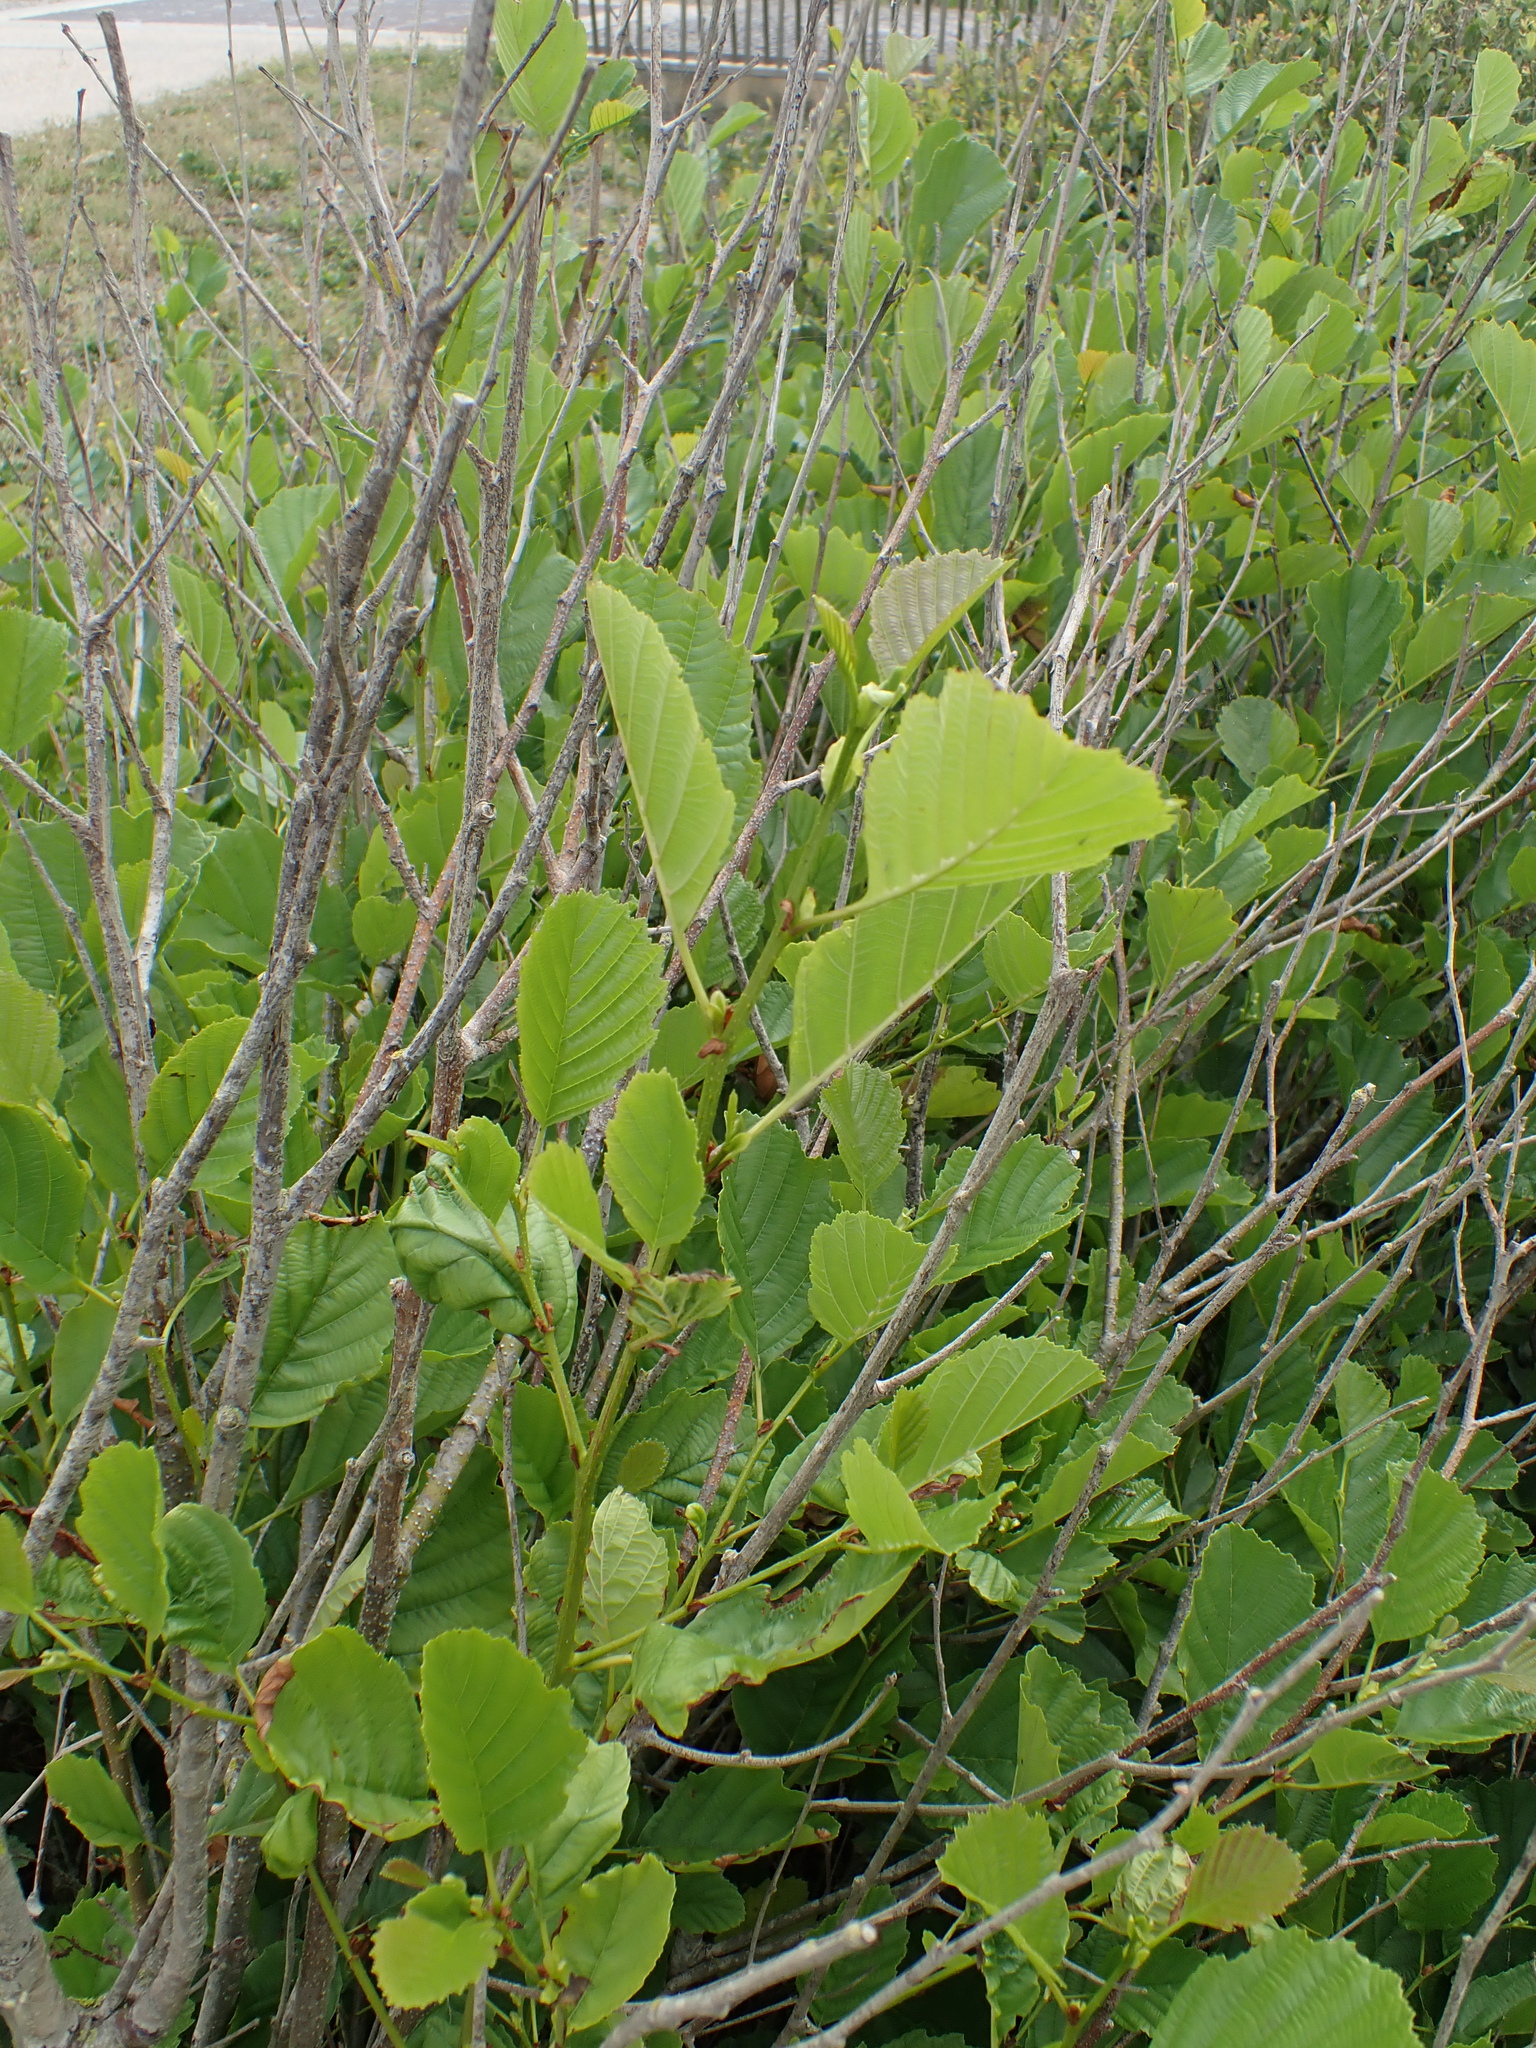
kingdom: Plantae
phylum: Tracheophyta
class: Magnoliopsida
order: Fagales
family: Betulaceae
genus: Alnus
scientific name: Alnus glutinosa
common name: Black alder
